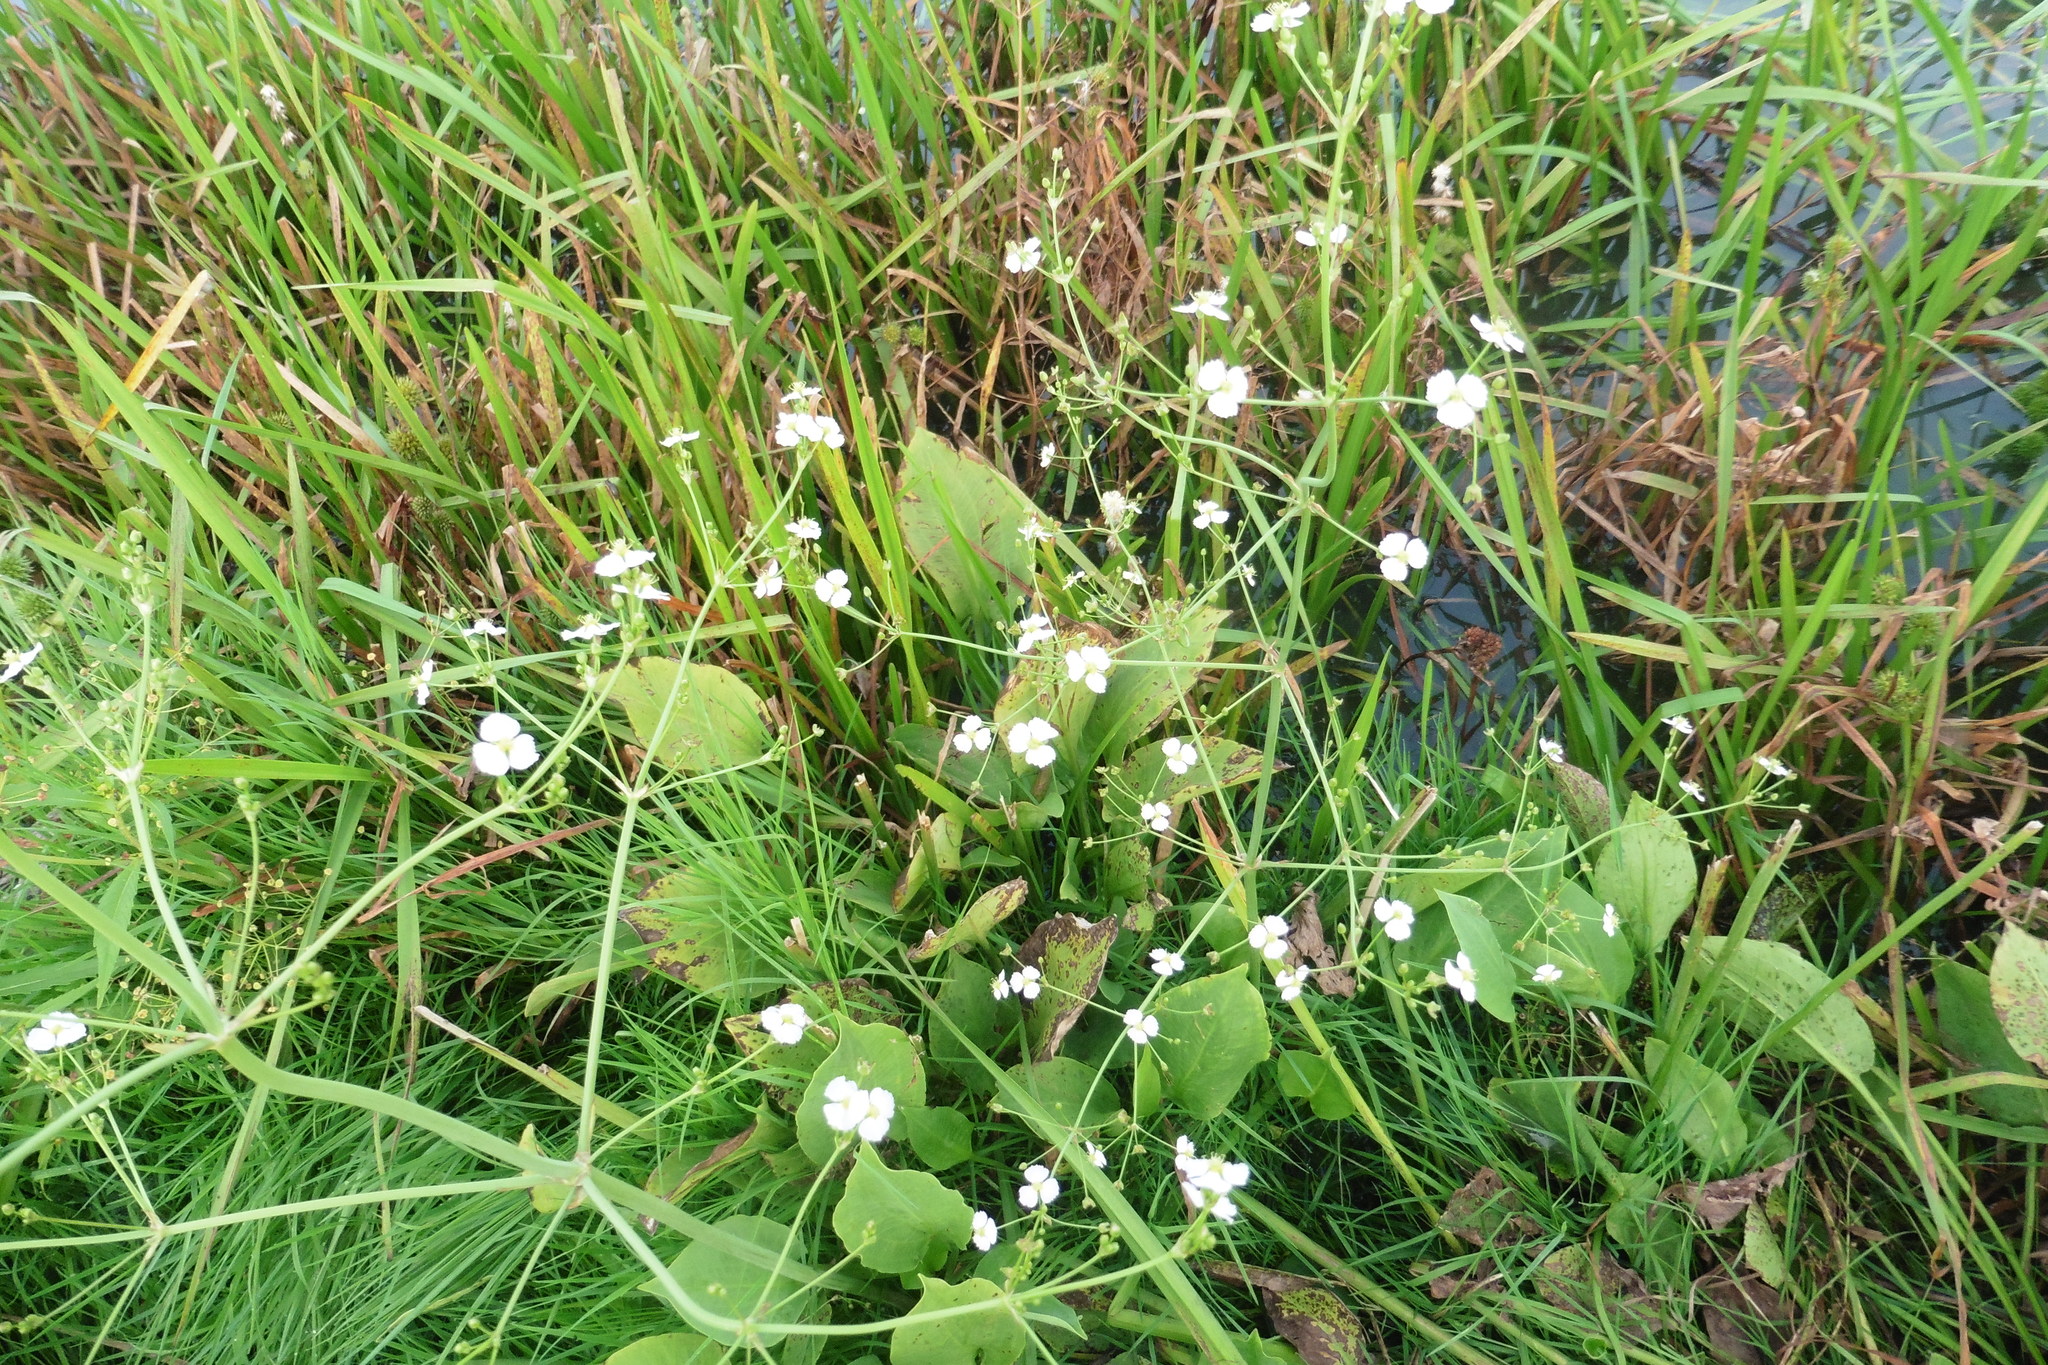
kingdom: Plantae
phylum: Tracheophyta
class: Liliopsida
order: Alismatales
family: Alismataceae
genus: Alisma
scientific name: Alisma plantago-aquatica
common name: Water-plantain
